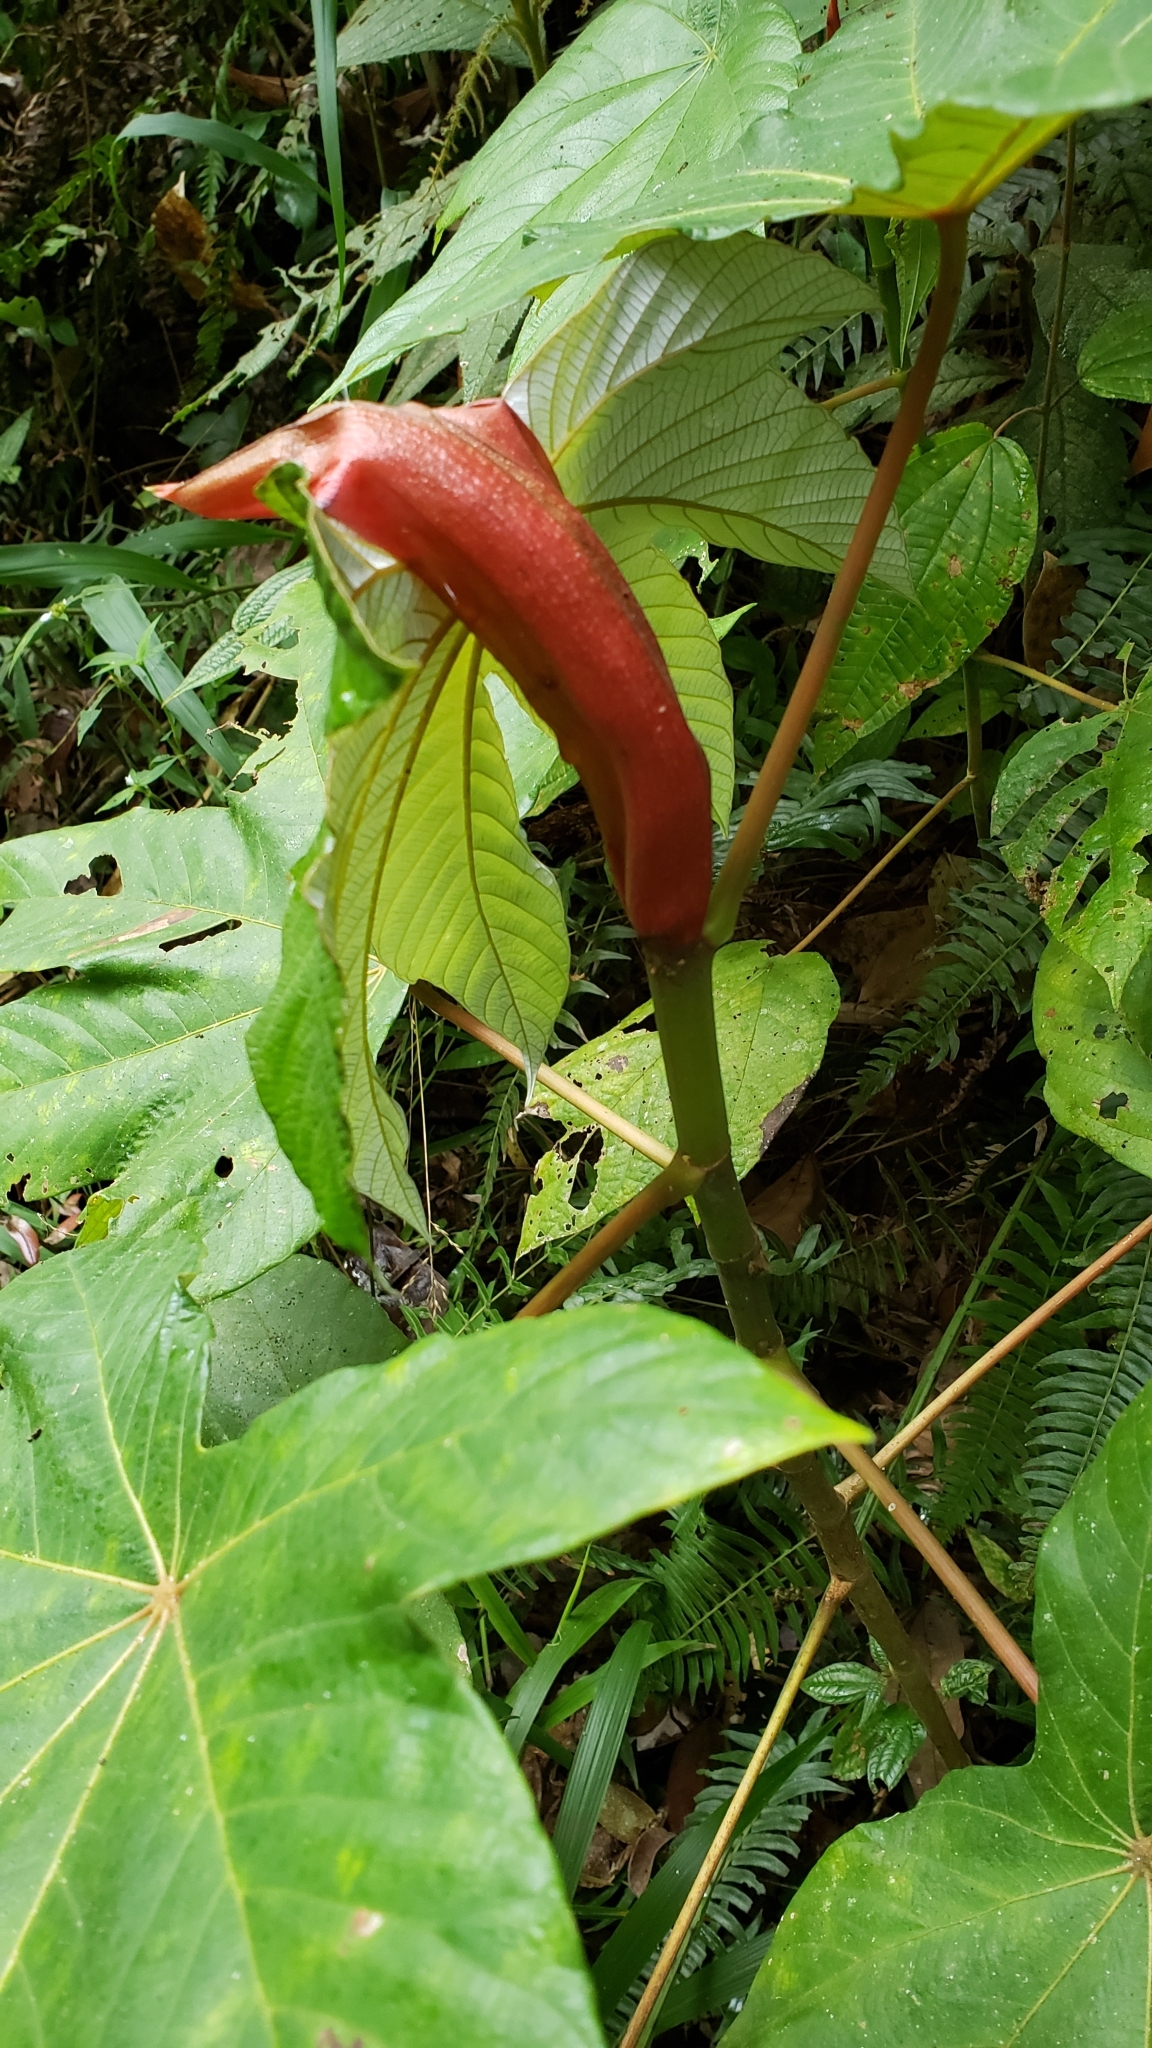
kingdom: Plantae
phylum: Tracheophyta
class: Magnoliopsida
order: Rosales
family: Urticaceae
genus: Cecropia
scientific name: Cecropia peltata
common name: Trumpet-tree
